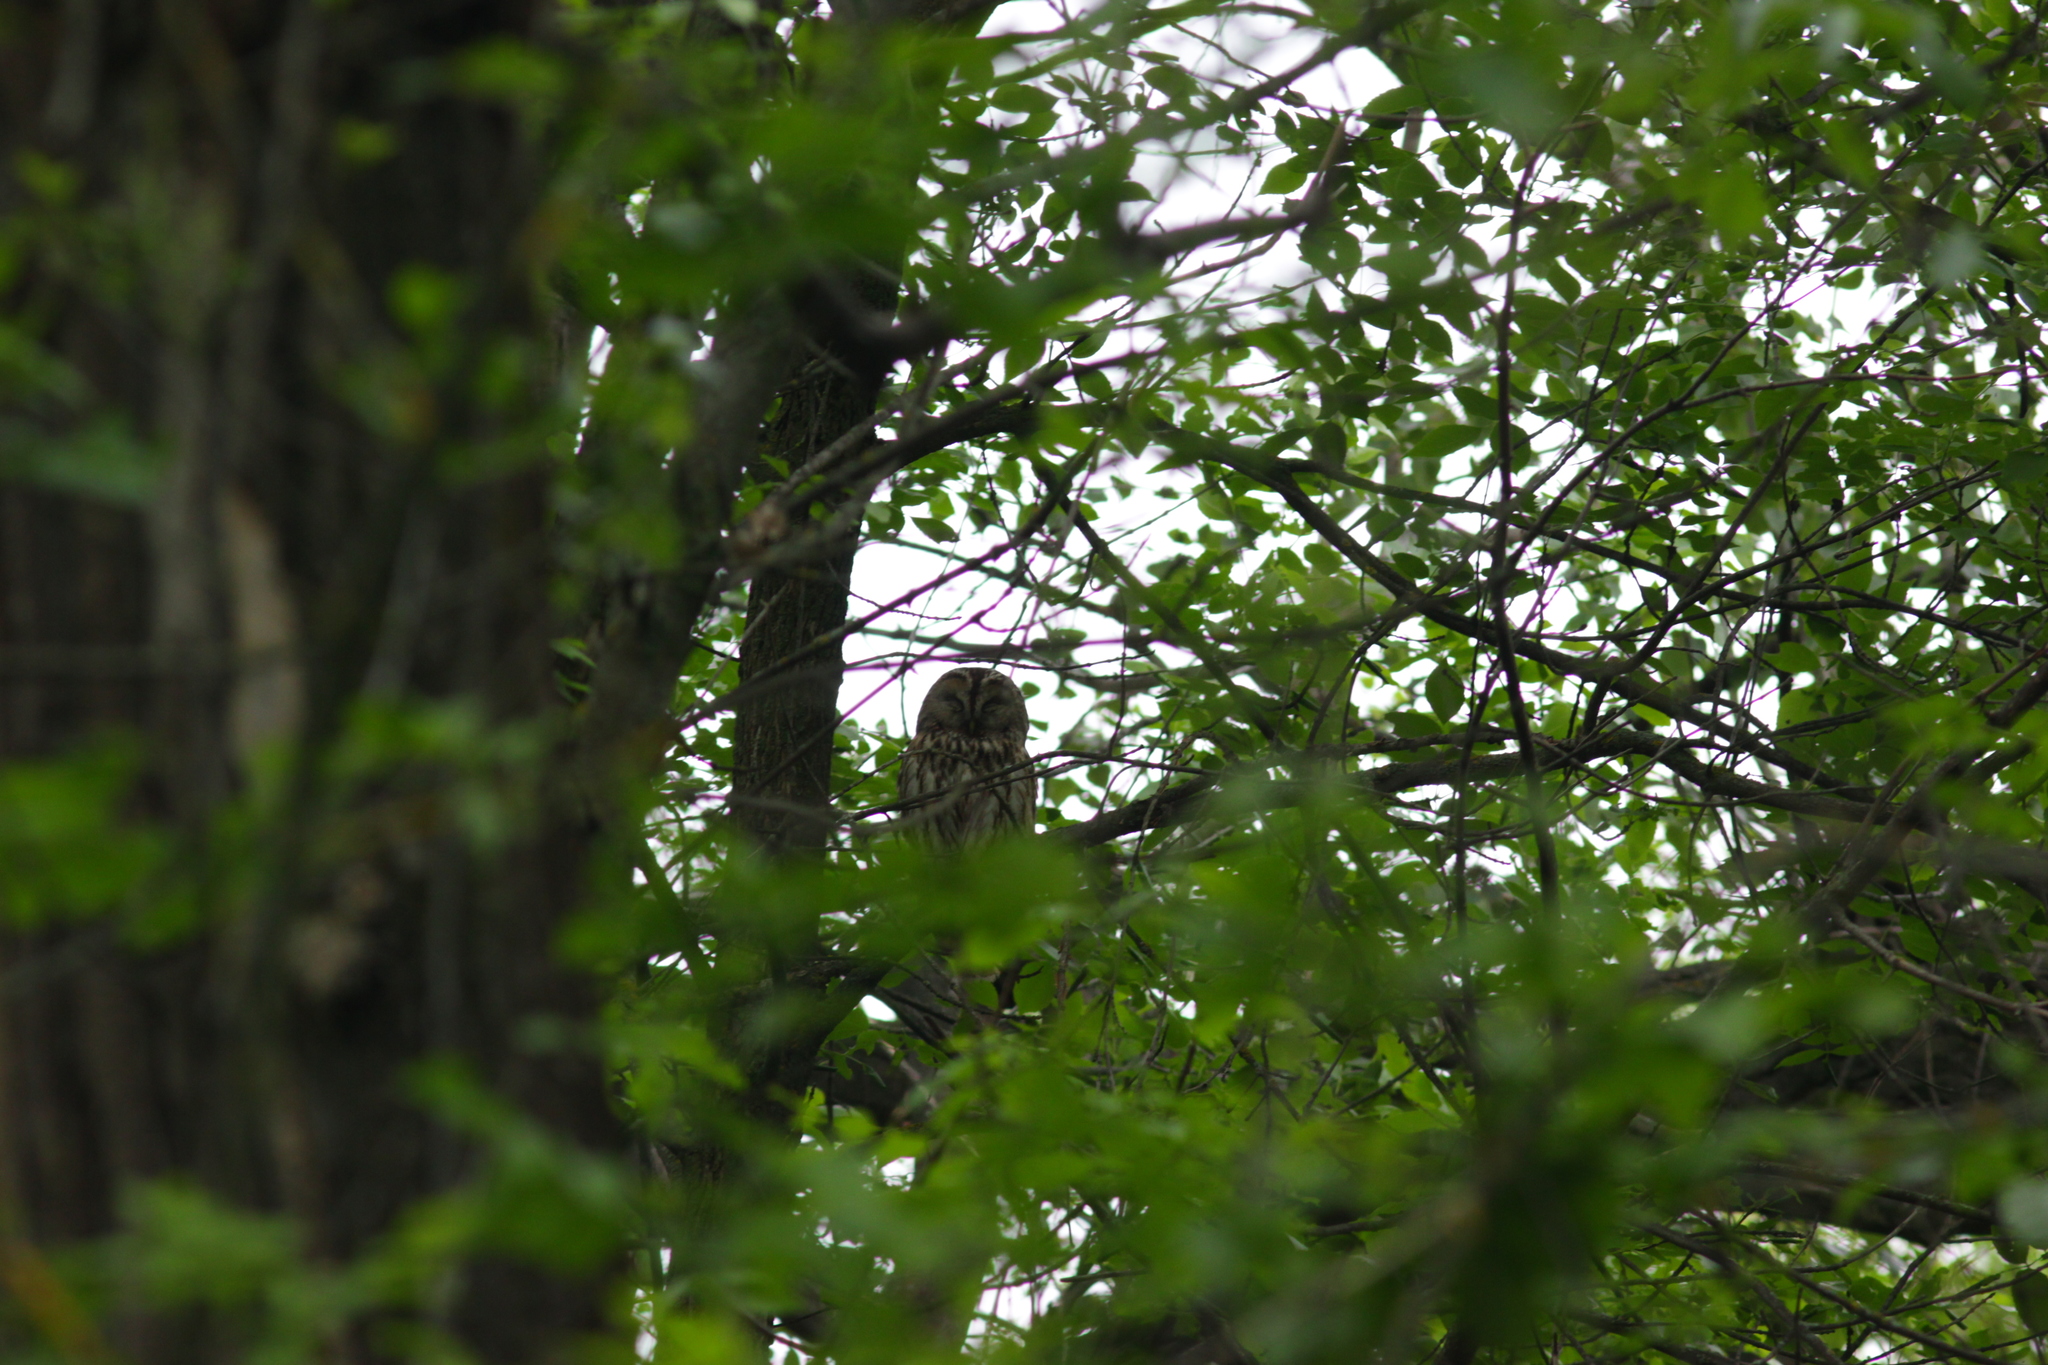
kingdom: Animalia
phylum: Chordata
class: Aves
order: Strigiformes
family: Strigidae
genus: Strix
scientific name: Strix aluco
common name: Tawny owl
